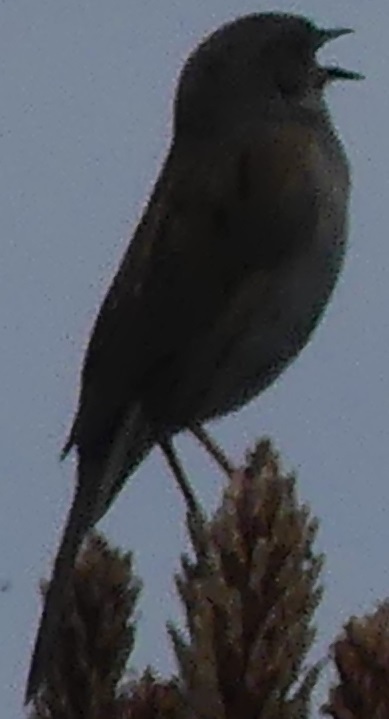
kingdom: Animalia
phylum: Chordata
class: Aves
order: Passeriformes
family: Prunellidae
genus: Prunella
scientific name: Prunella modularis
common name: Dunnock
